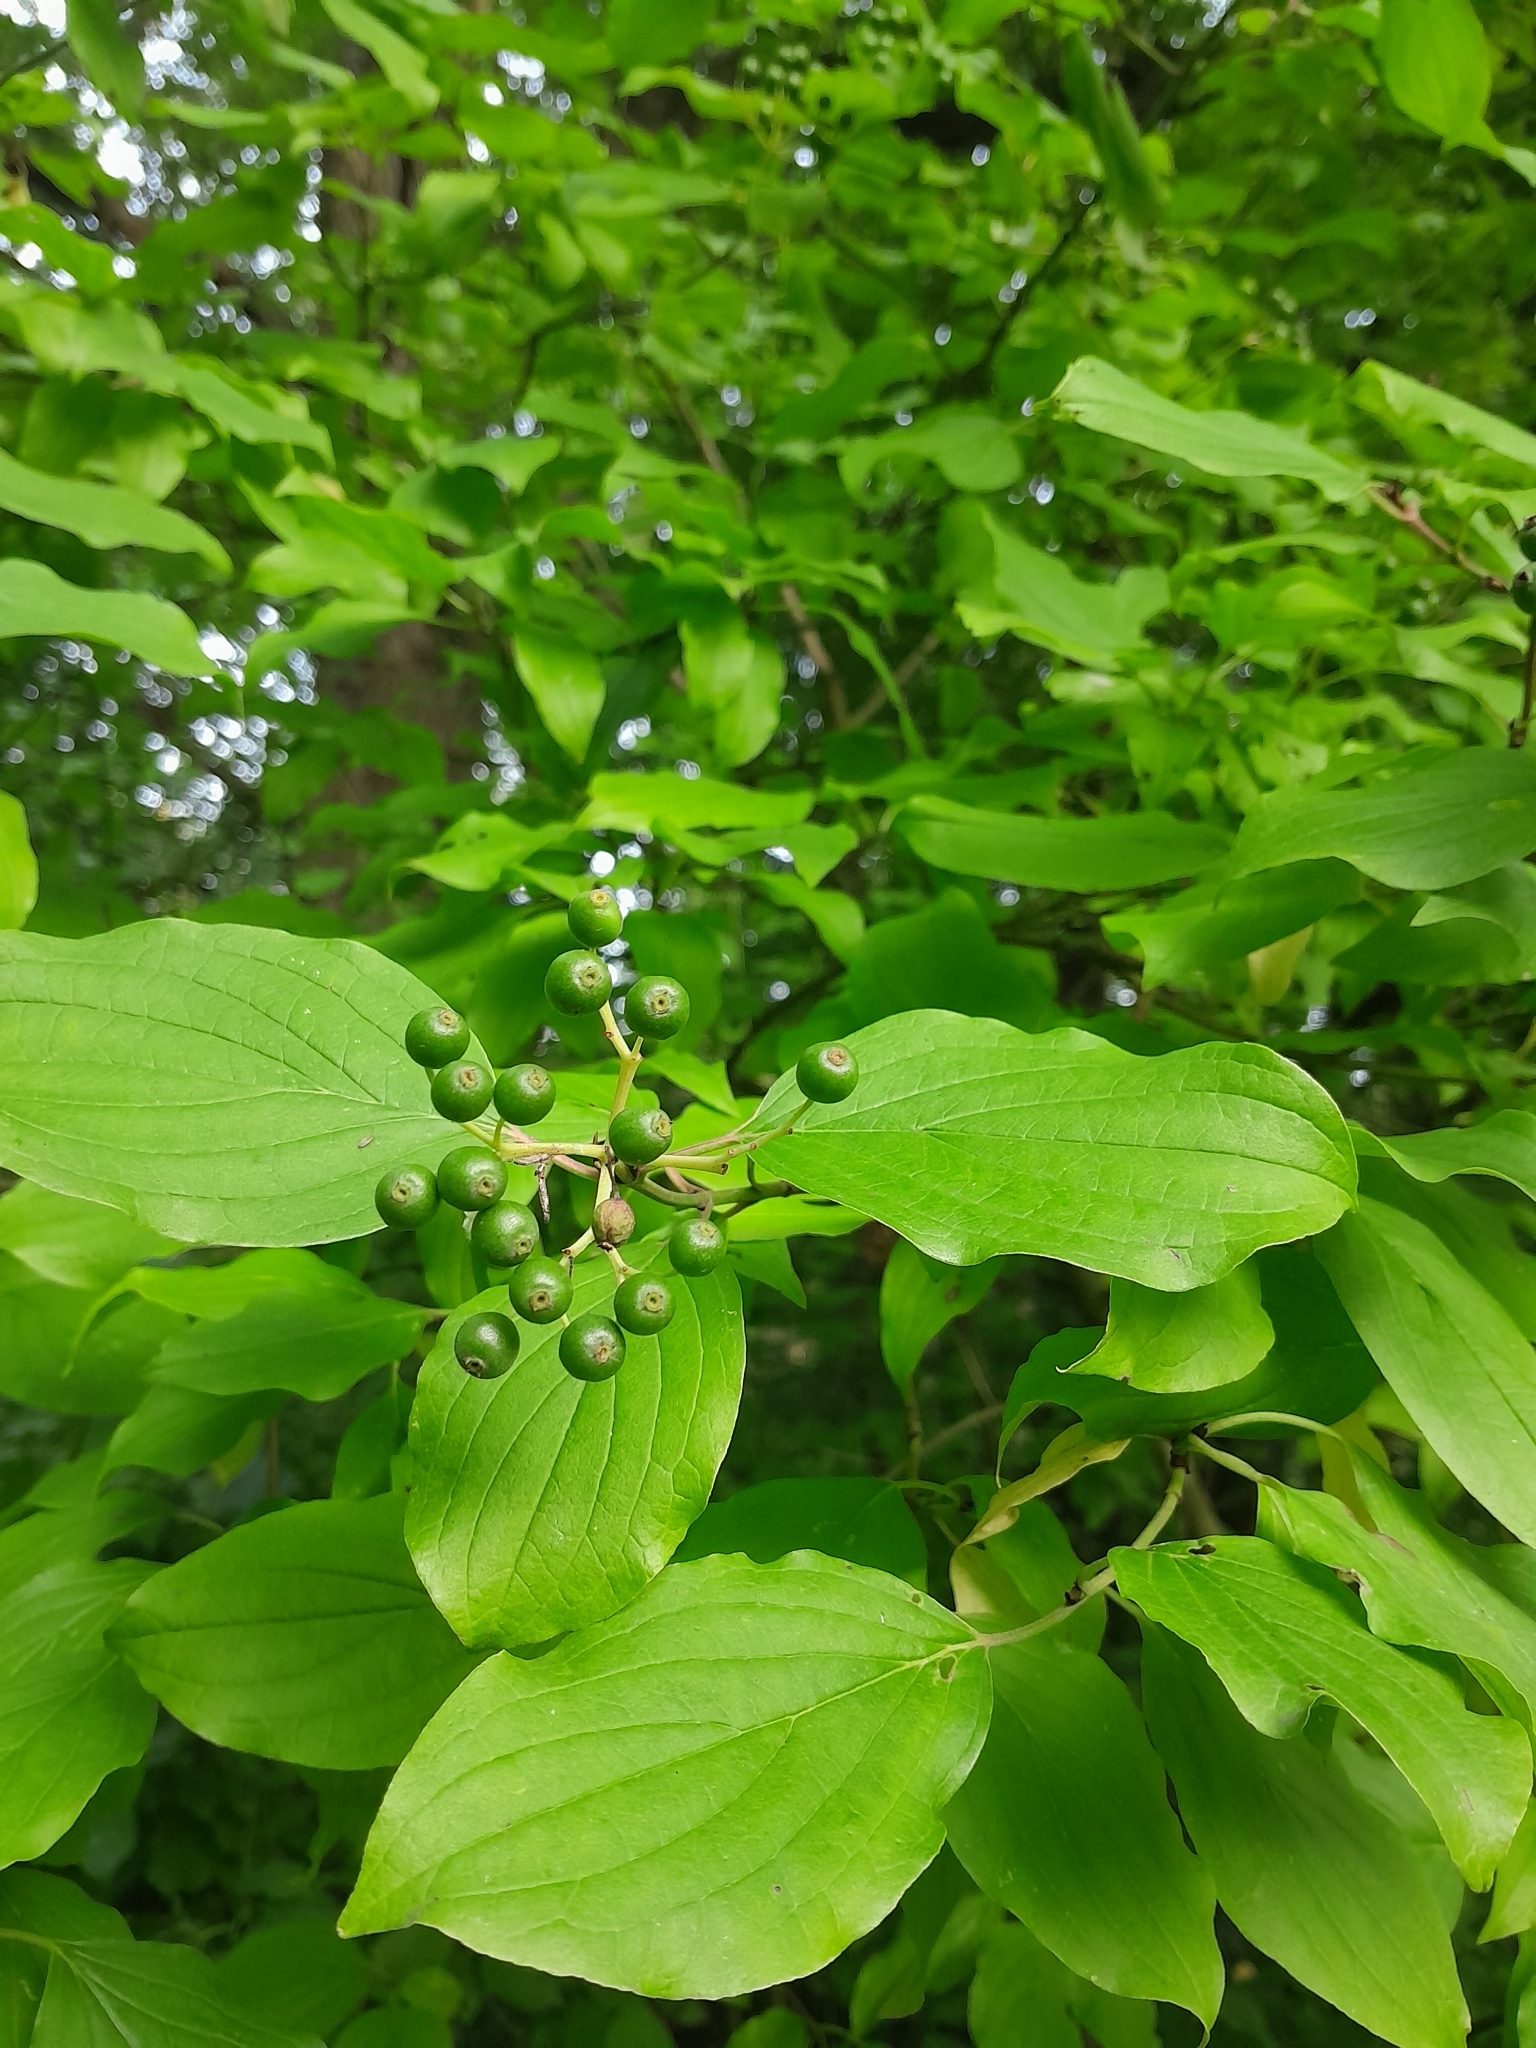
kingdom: Plantae
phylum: Tracheophyta
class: Magnoliopsida
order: Cornales
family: Cornaceae
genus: Cornus
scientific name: Cornus sanguinea
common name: Dogwood
